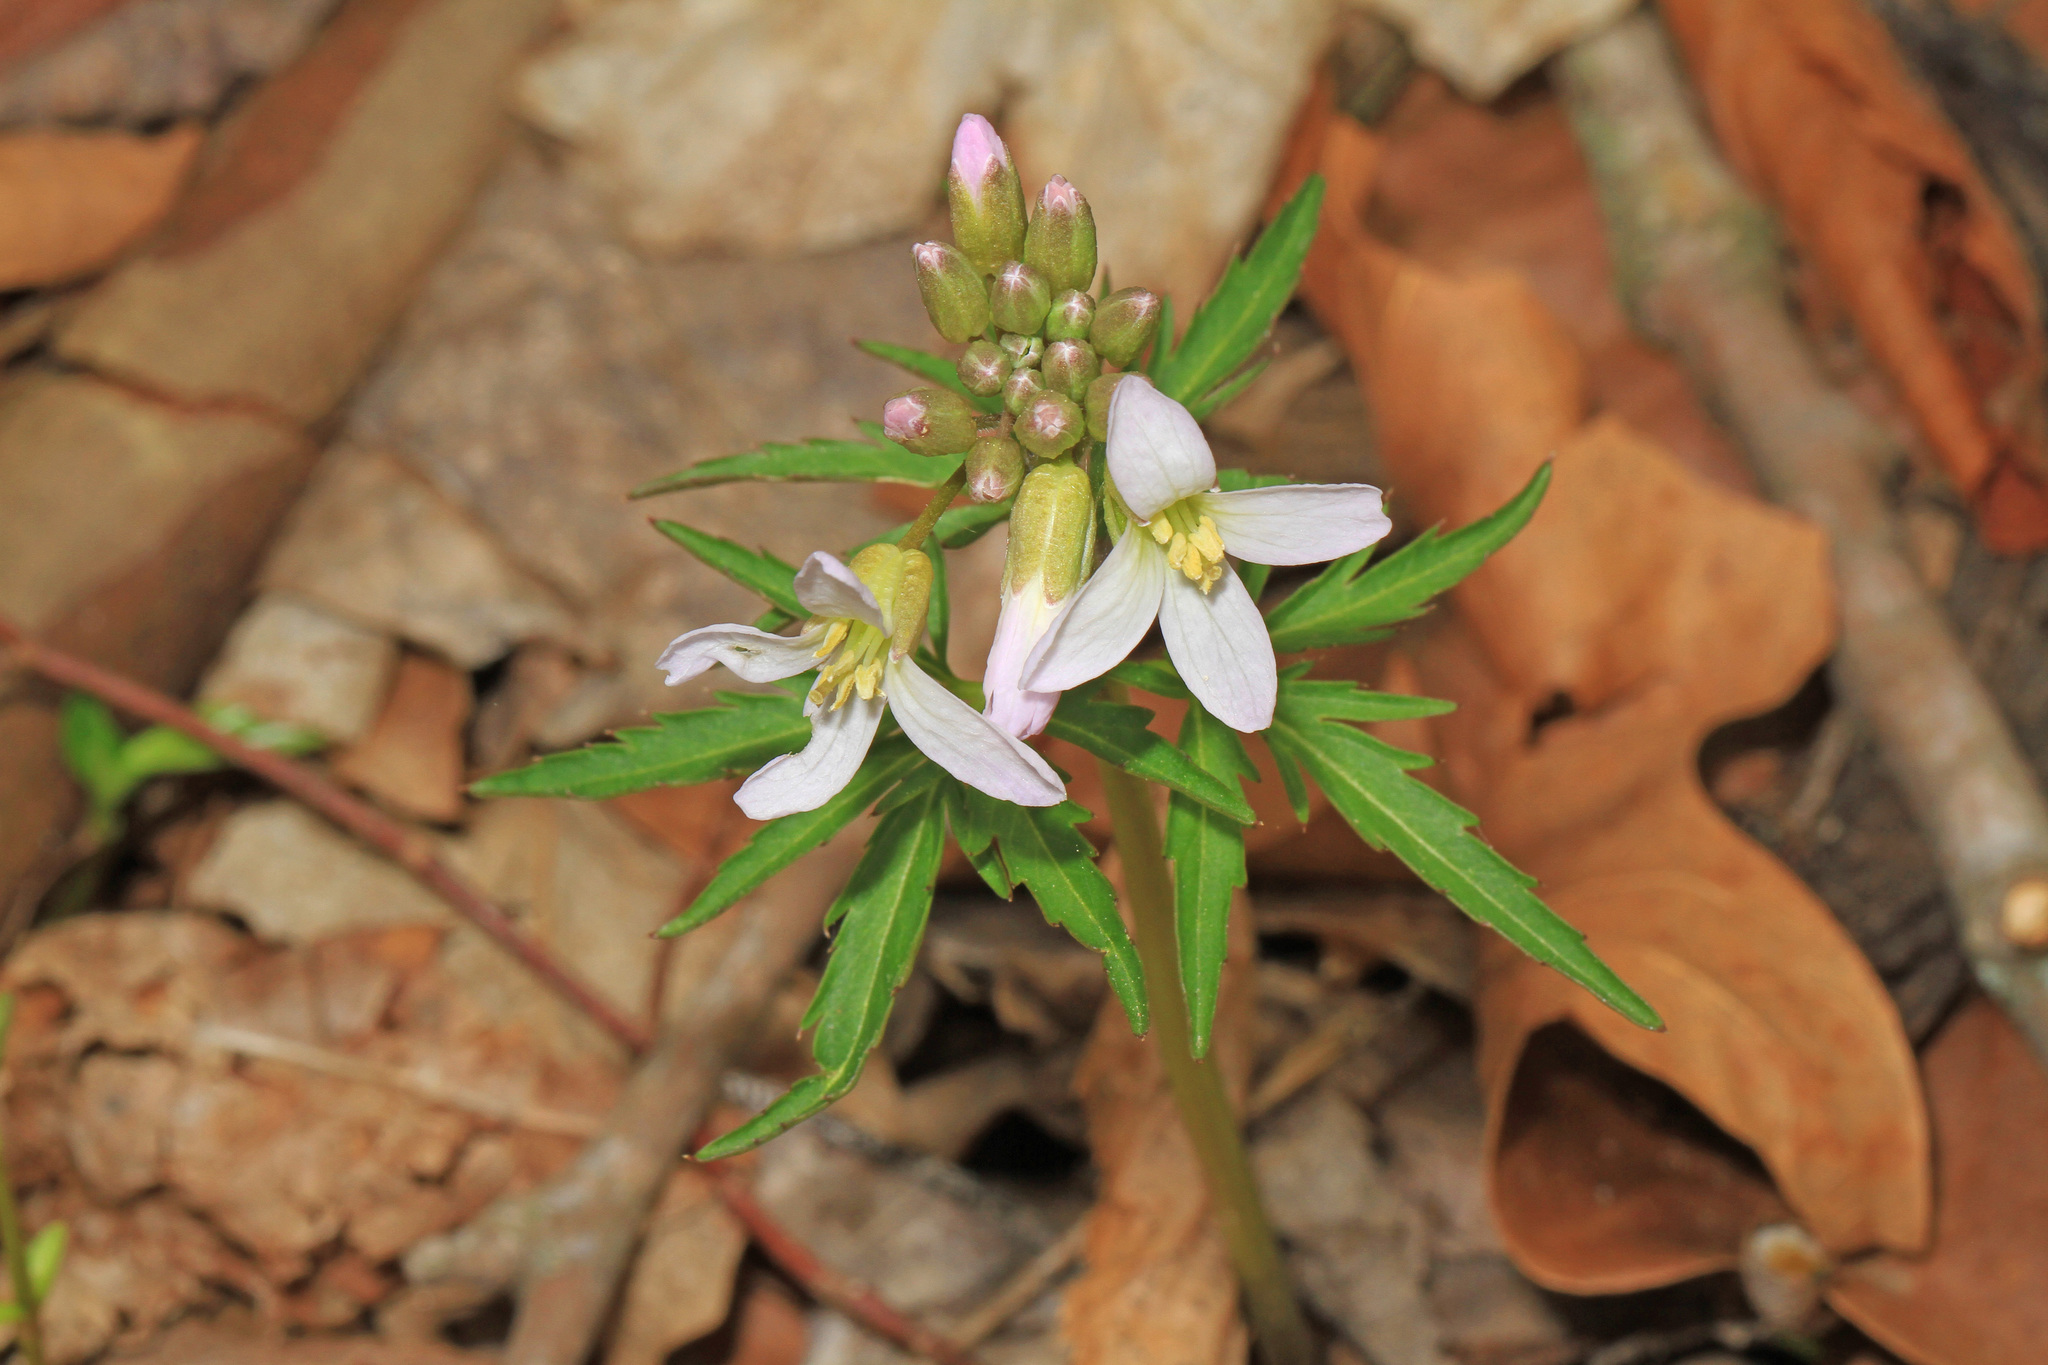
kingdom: Plantae
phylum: Tracheophyta
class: Magnoliopsida
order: Brassicales
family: Brassicaceae
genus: Cardamine
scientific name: Cardamine concatenata
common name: Cut-leaf toothcup
